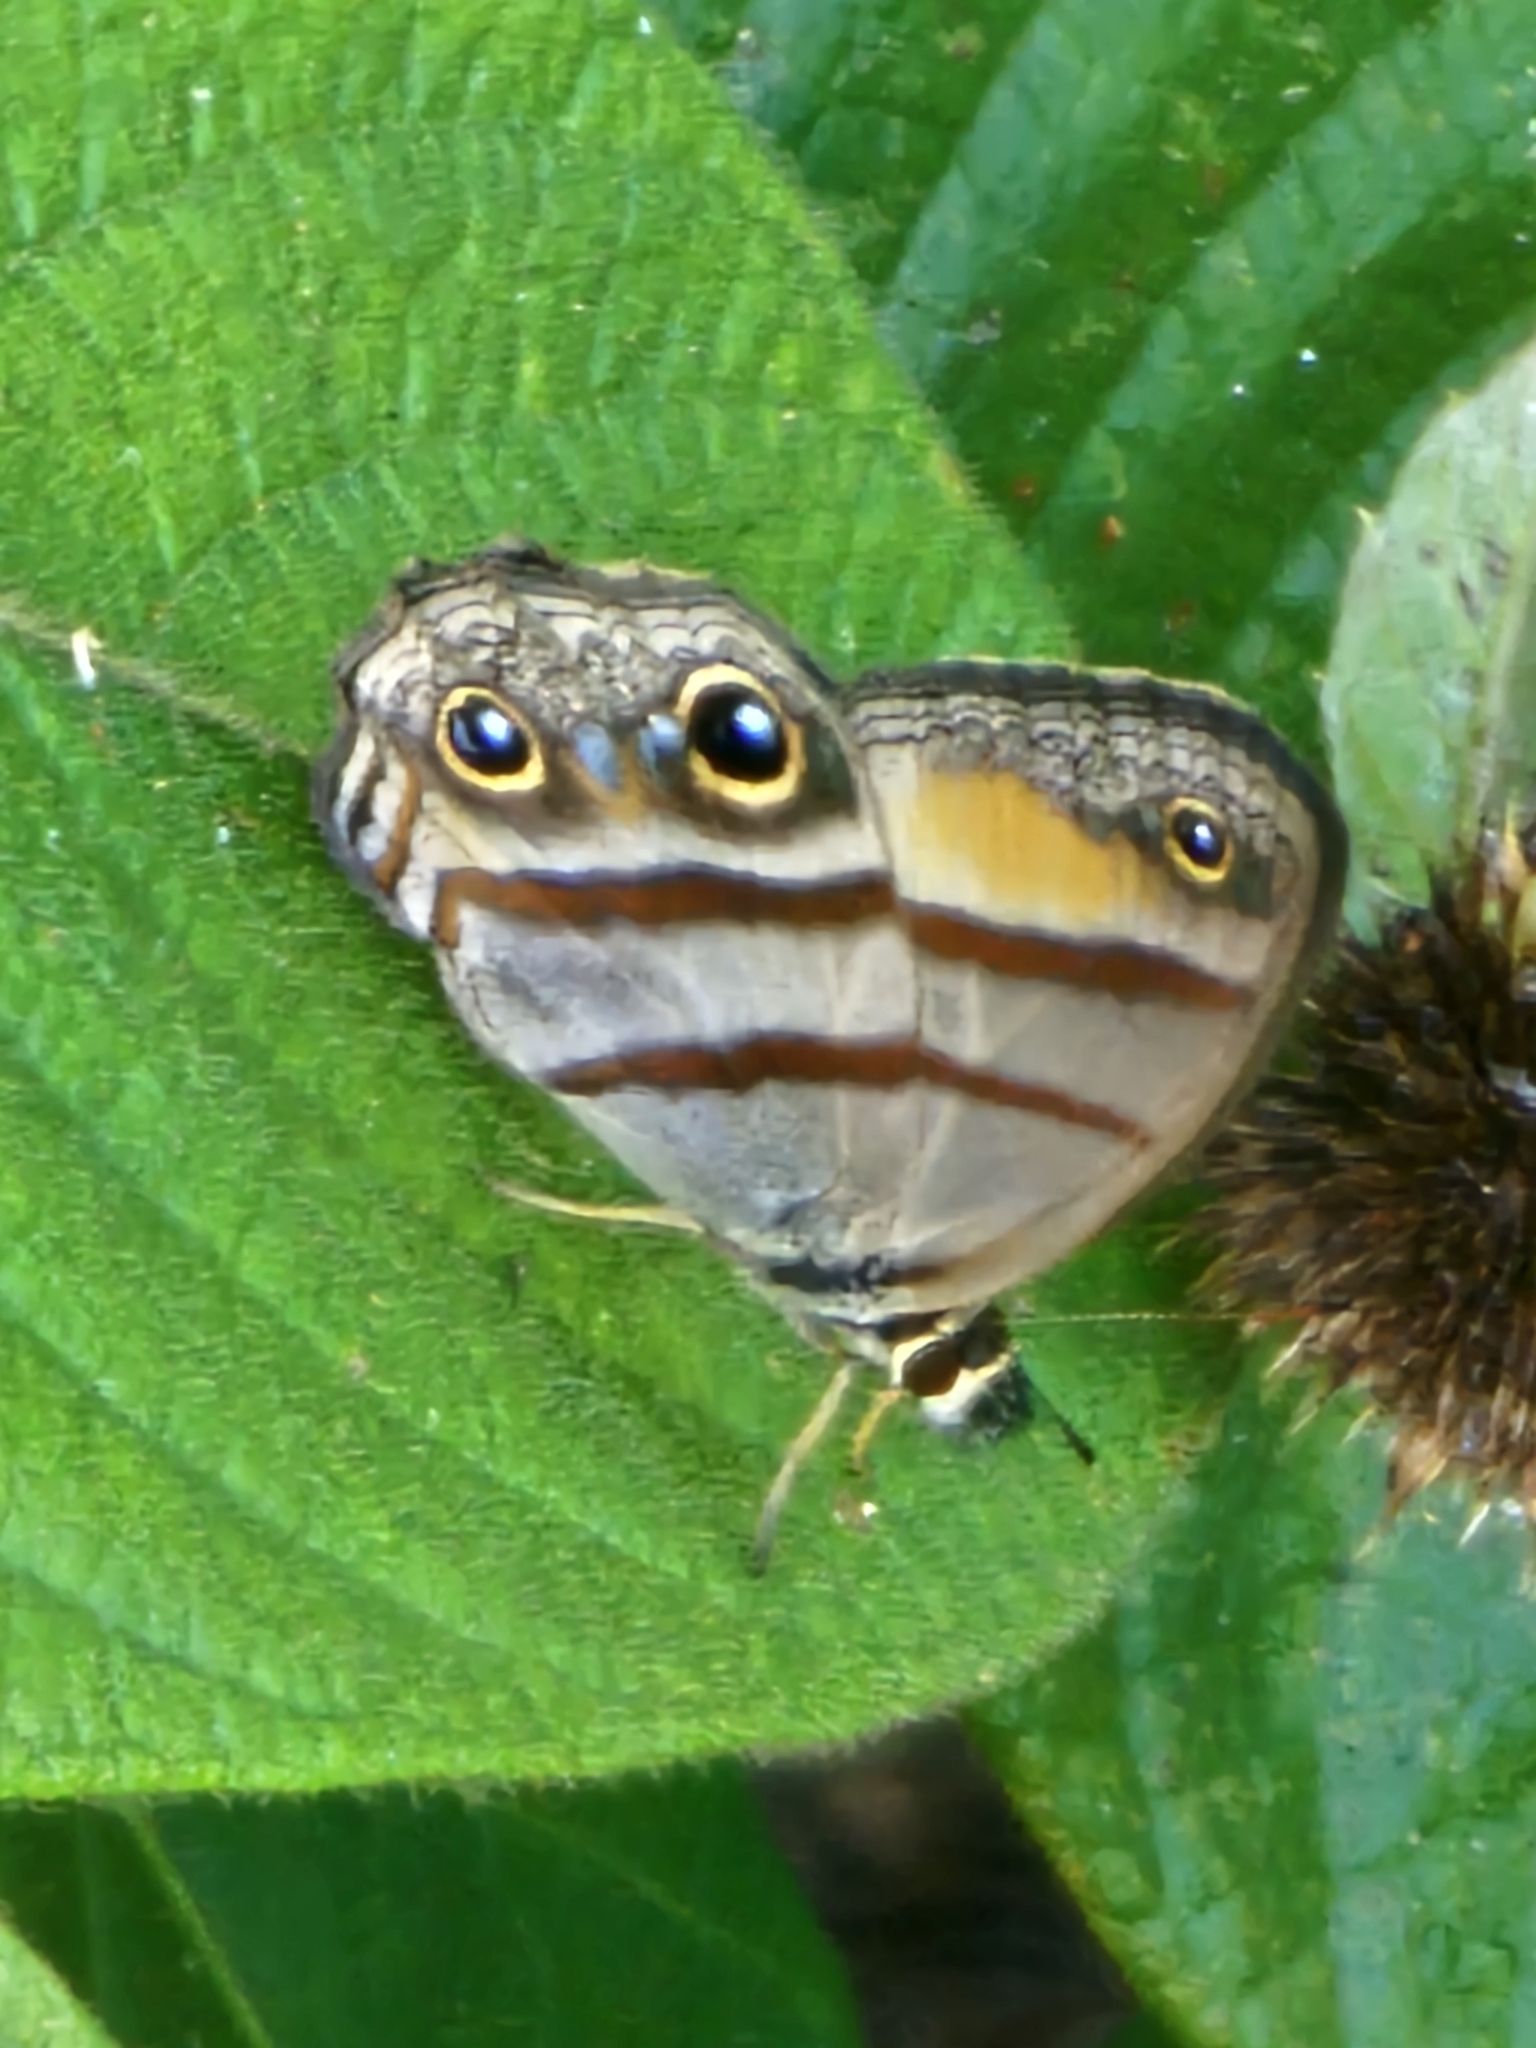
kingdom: Animalia
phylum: Arthropoda
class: Insecta
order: Lepidoptera
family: Nymphalidae
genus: Argyreuptychia
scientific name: Argyreuptychia penelope
